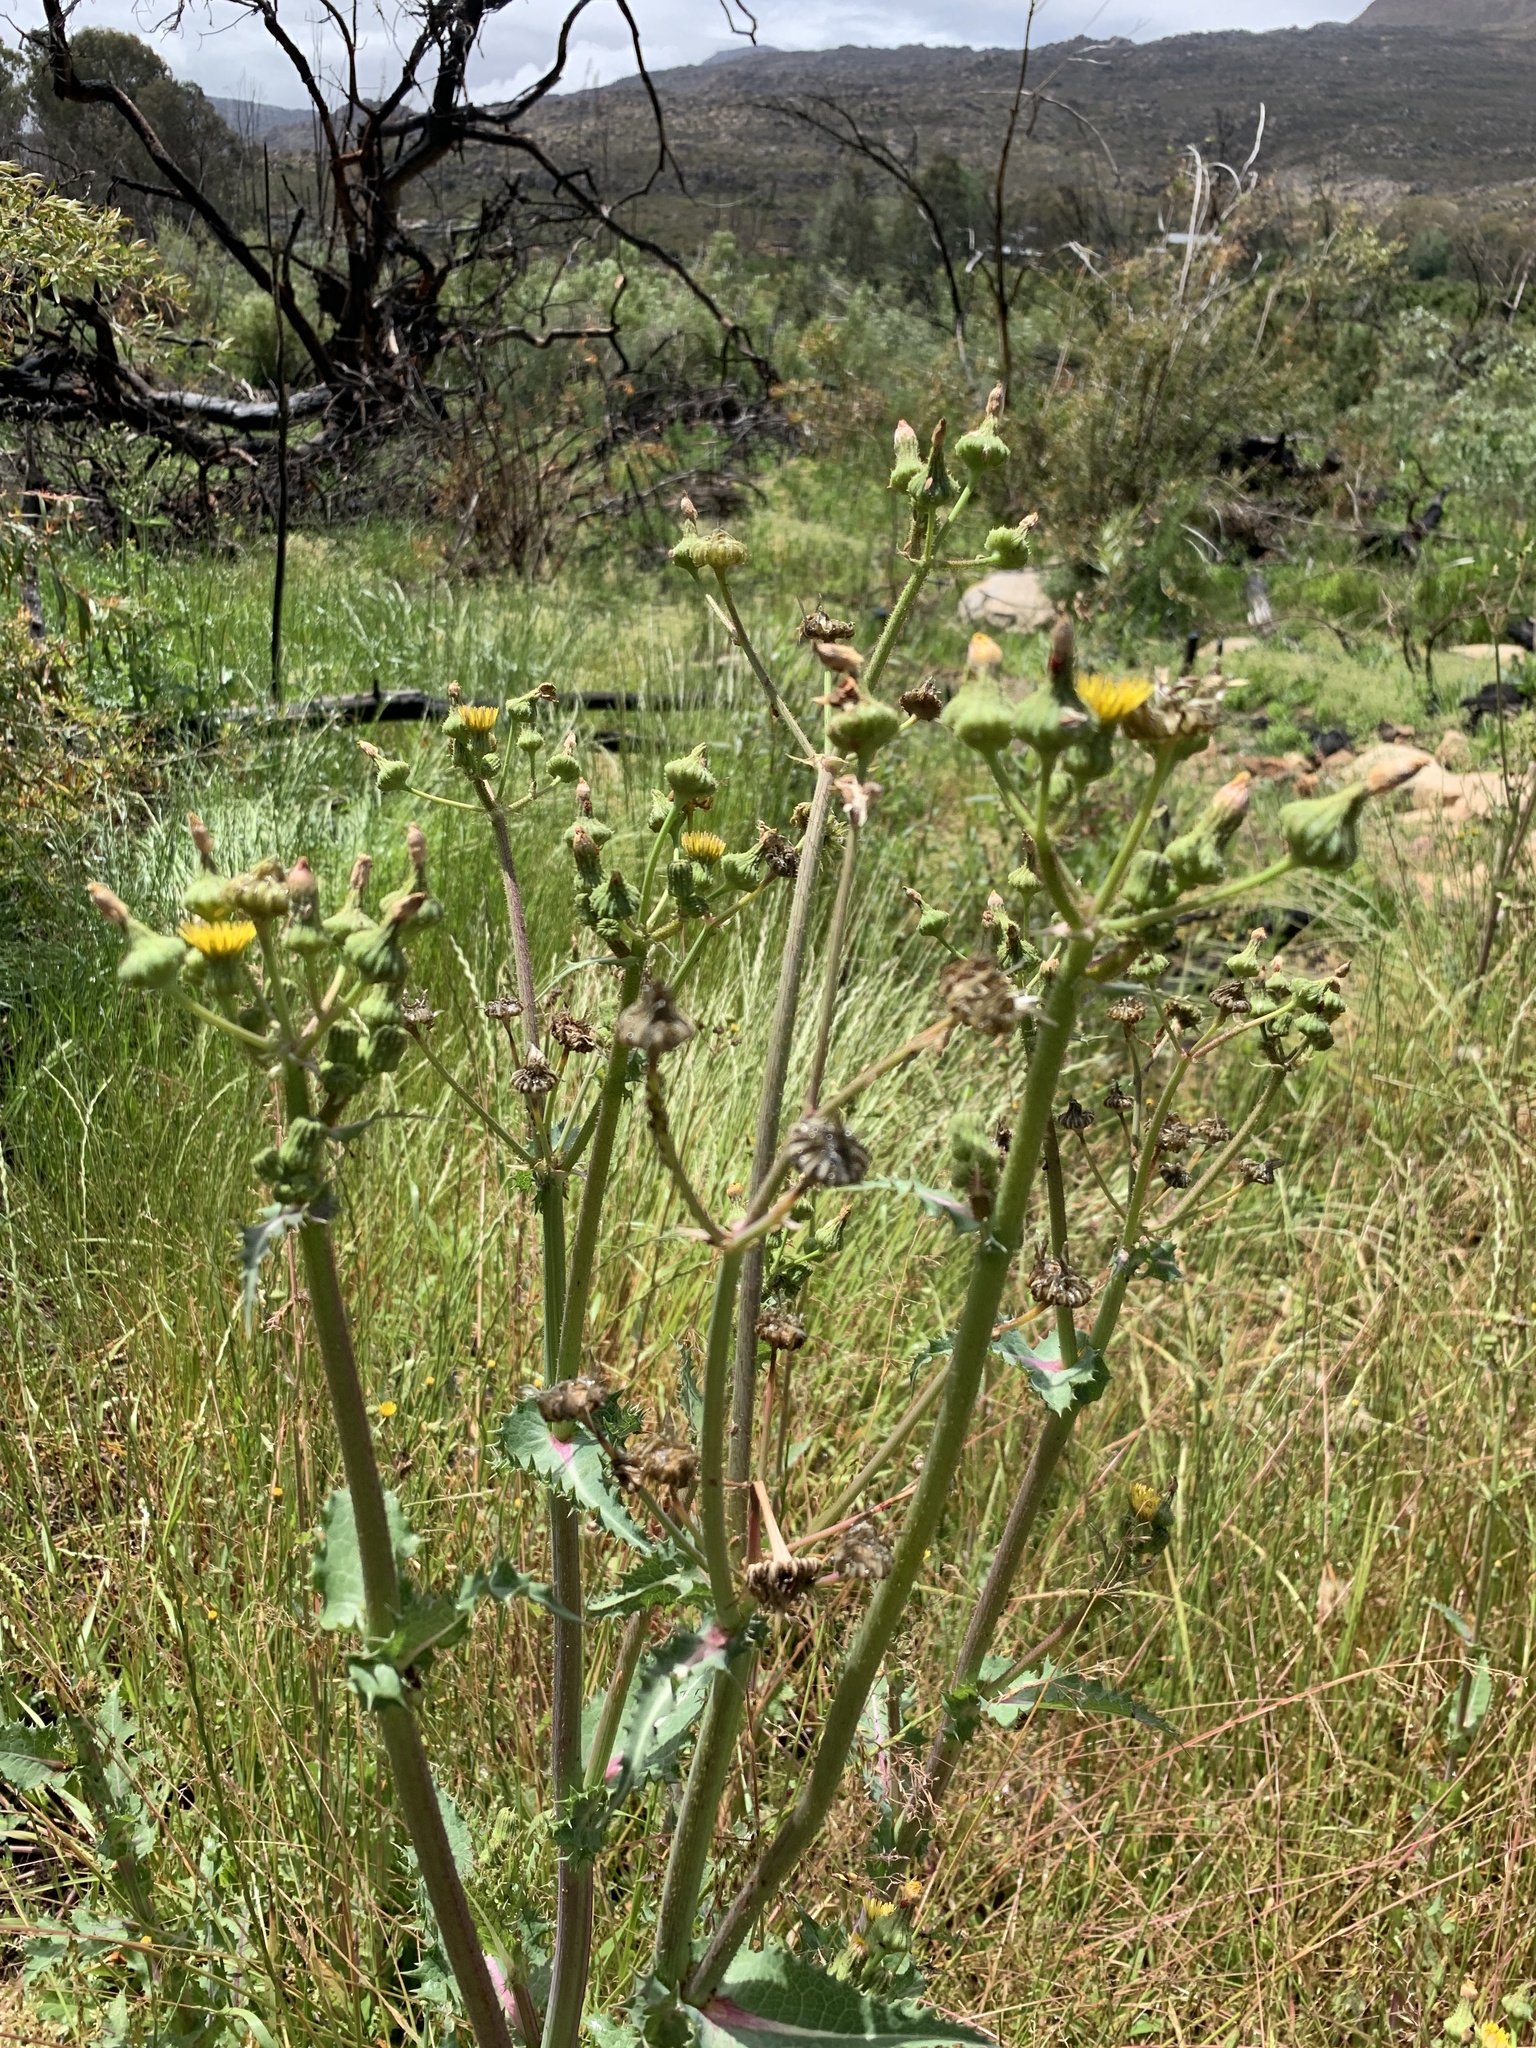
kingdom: Plantae
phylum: Tracheophyta
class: Magnoliopsida
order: Asterales
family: Asteraceae
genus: Sonchus
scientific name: Sonchus asper
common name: Prickly sow-thistle
